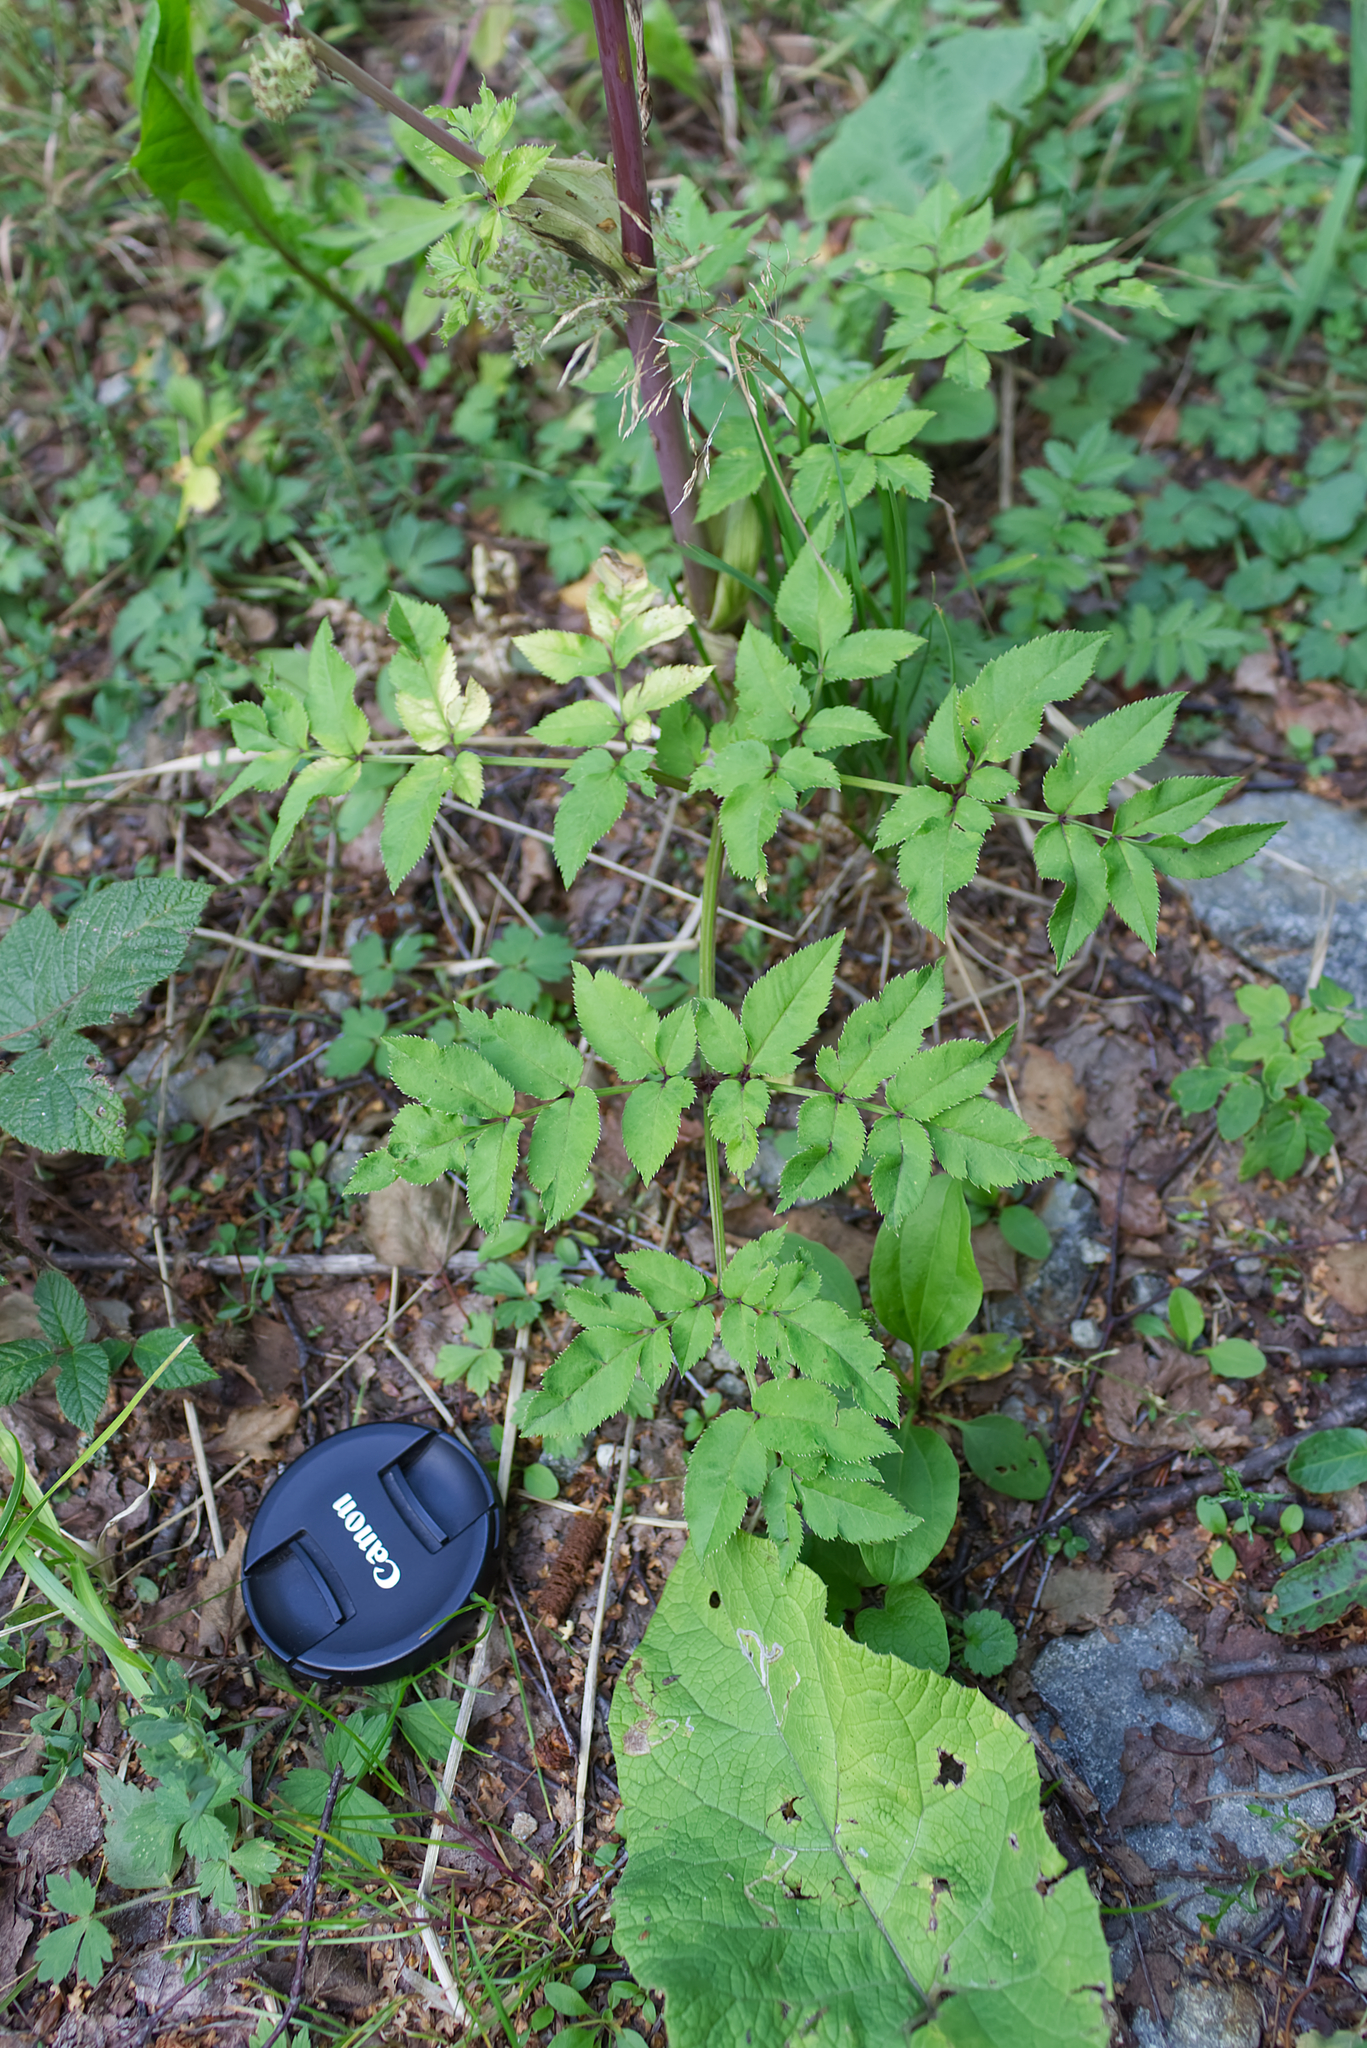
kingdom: Plantae
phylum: Tracheophyta
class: Magnoliopsida
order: Apiales
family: Apiaceae
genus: Angelica
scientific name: Angelica sylvestris
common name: Wild angelica
